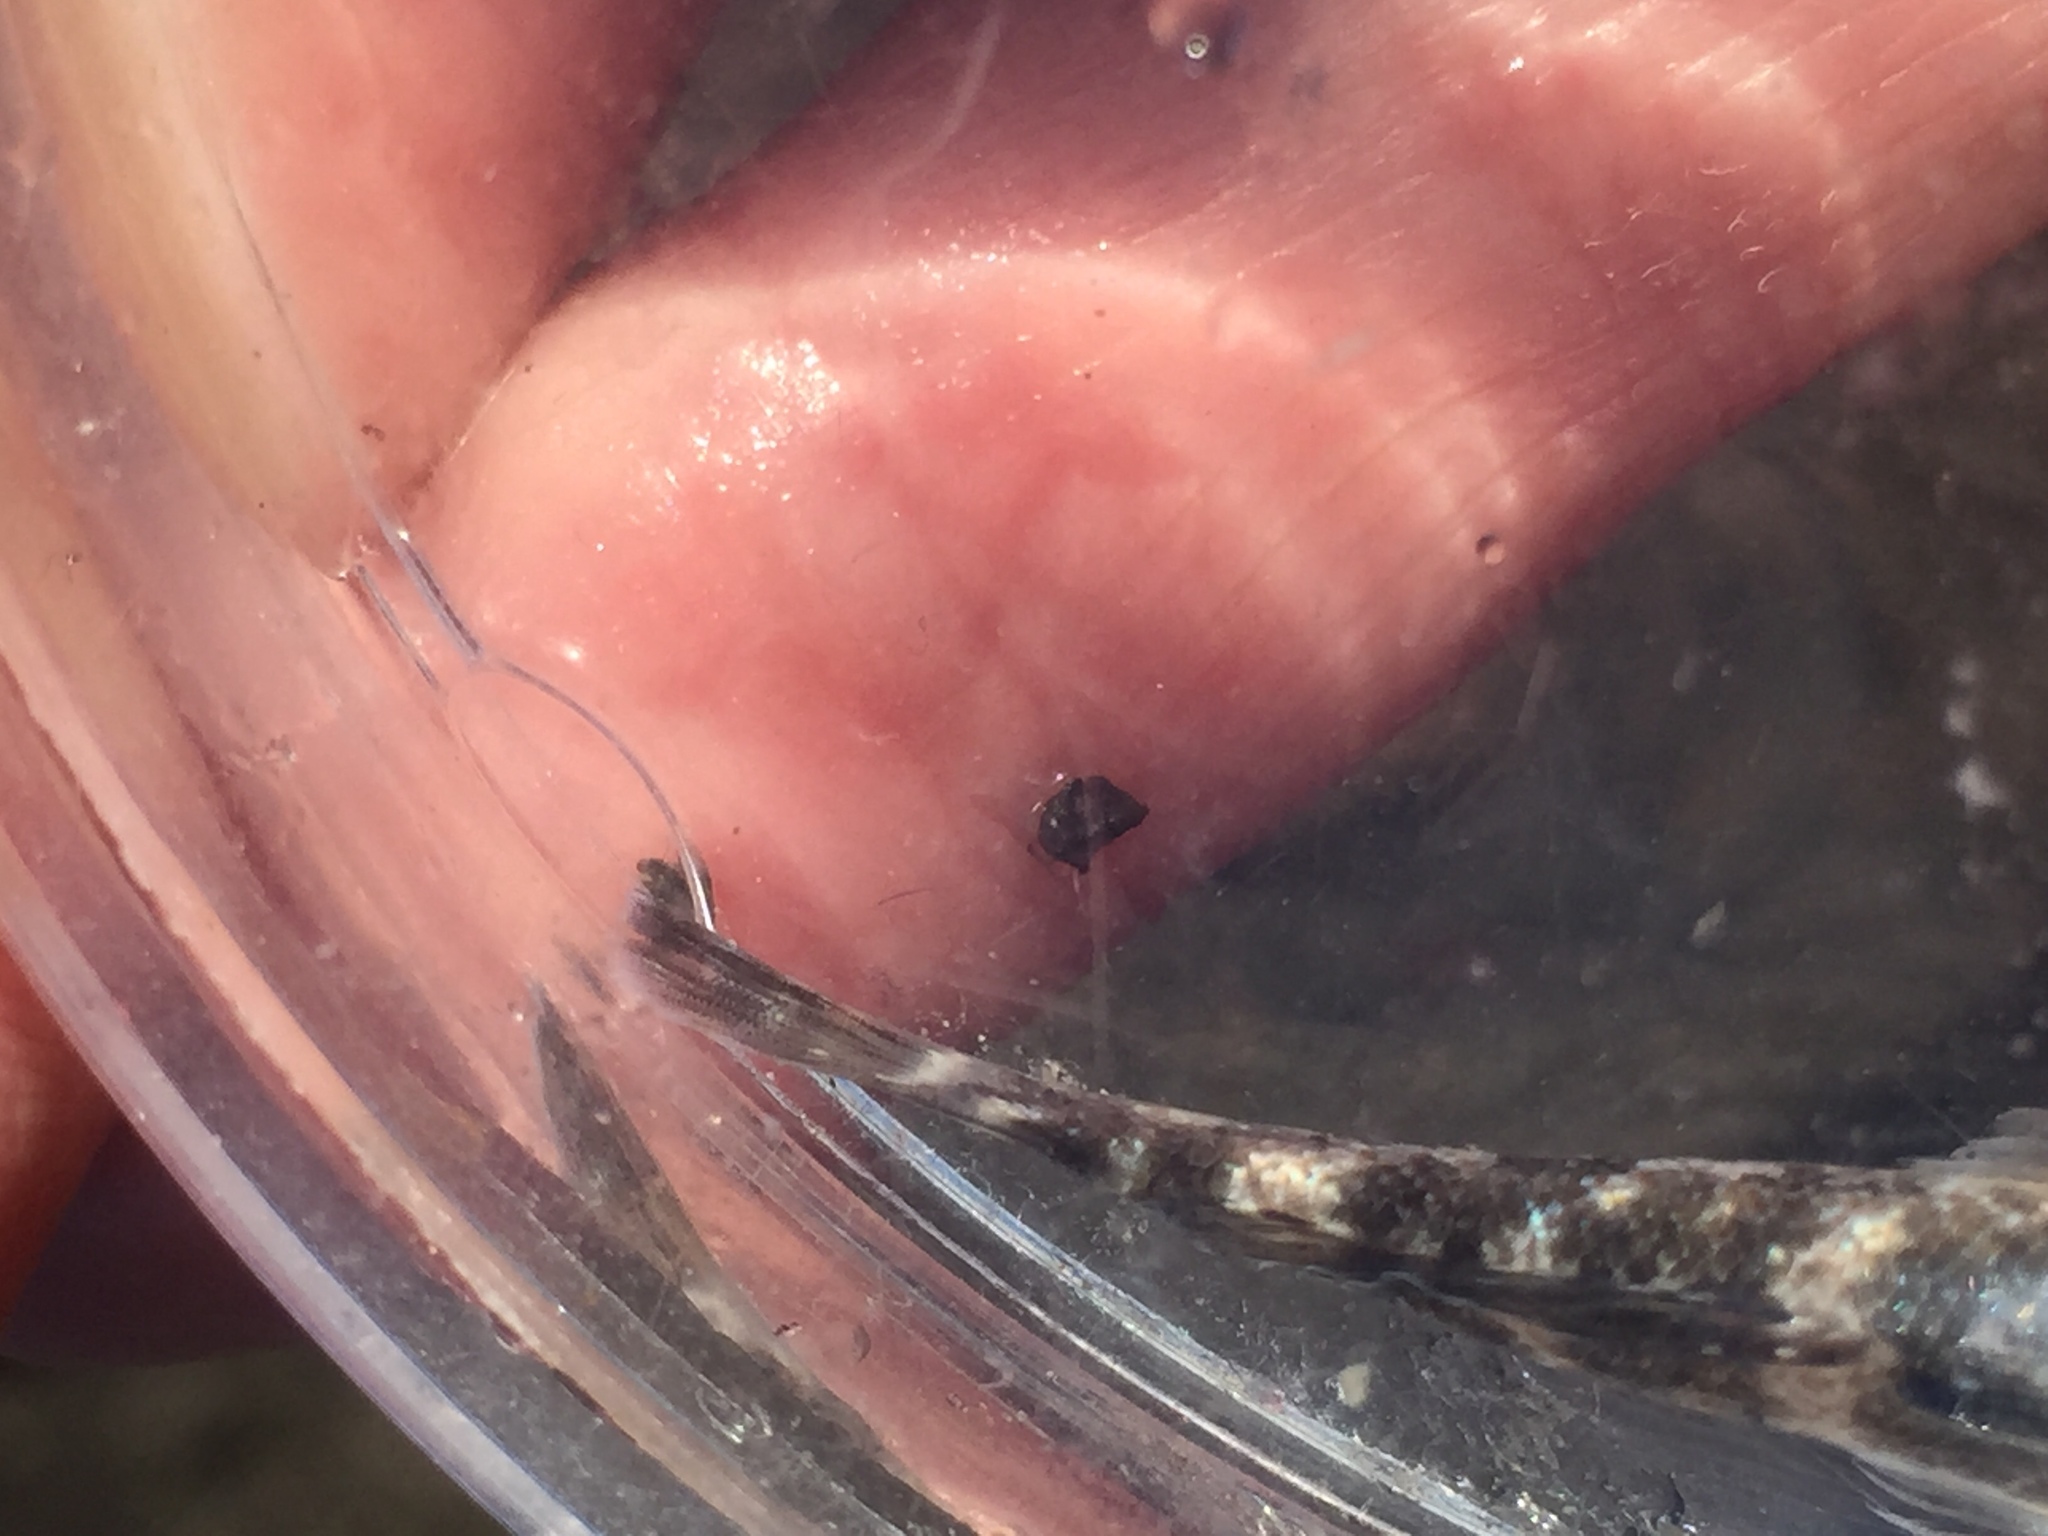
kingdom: Animalia
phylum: Chordata
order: Perciformes
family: Gobiidae
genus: Mauligobius
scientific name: Mauligobius maderensis
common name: Rock goby
